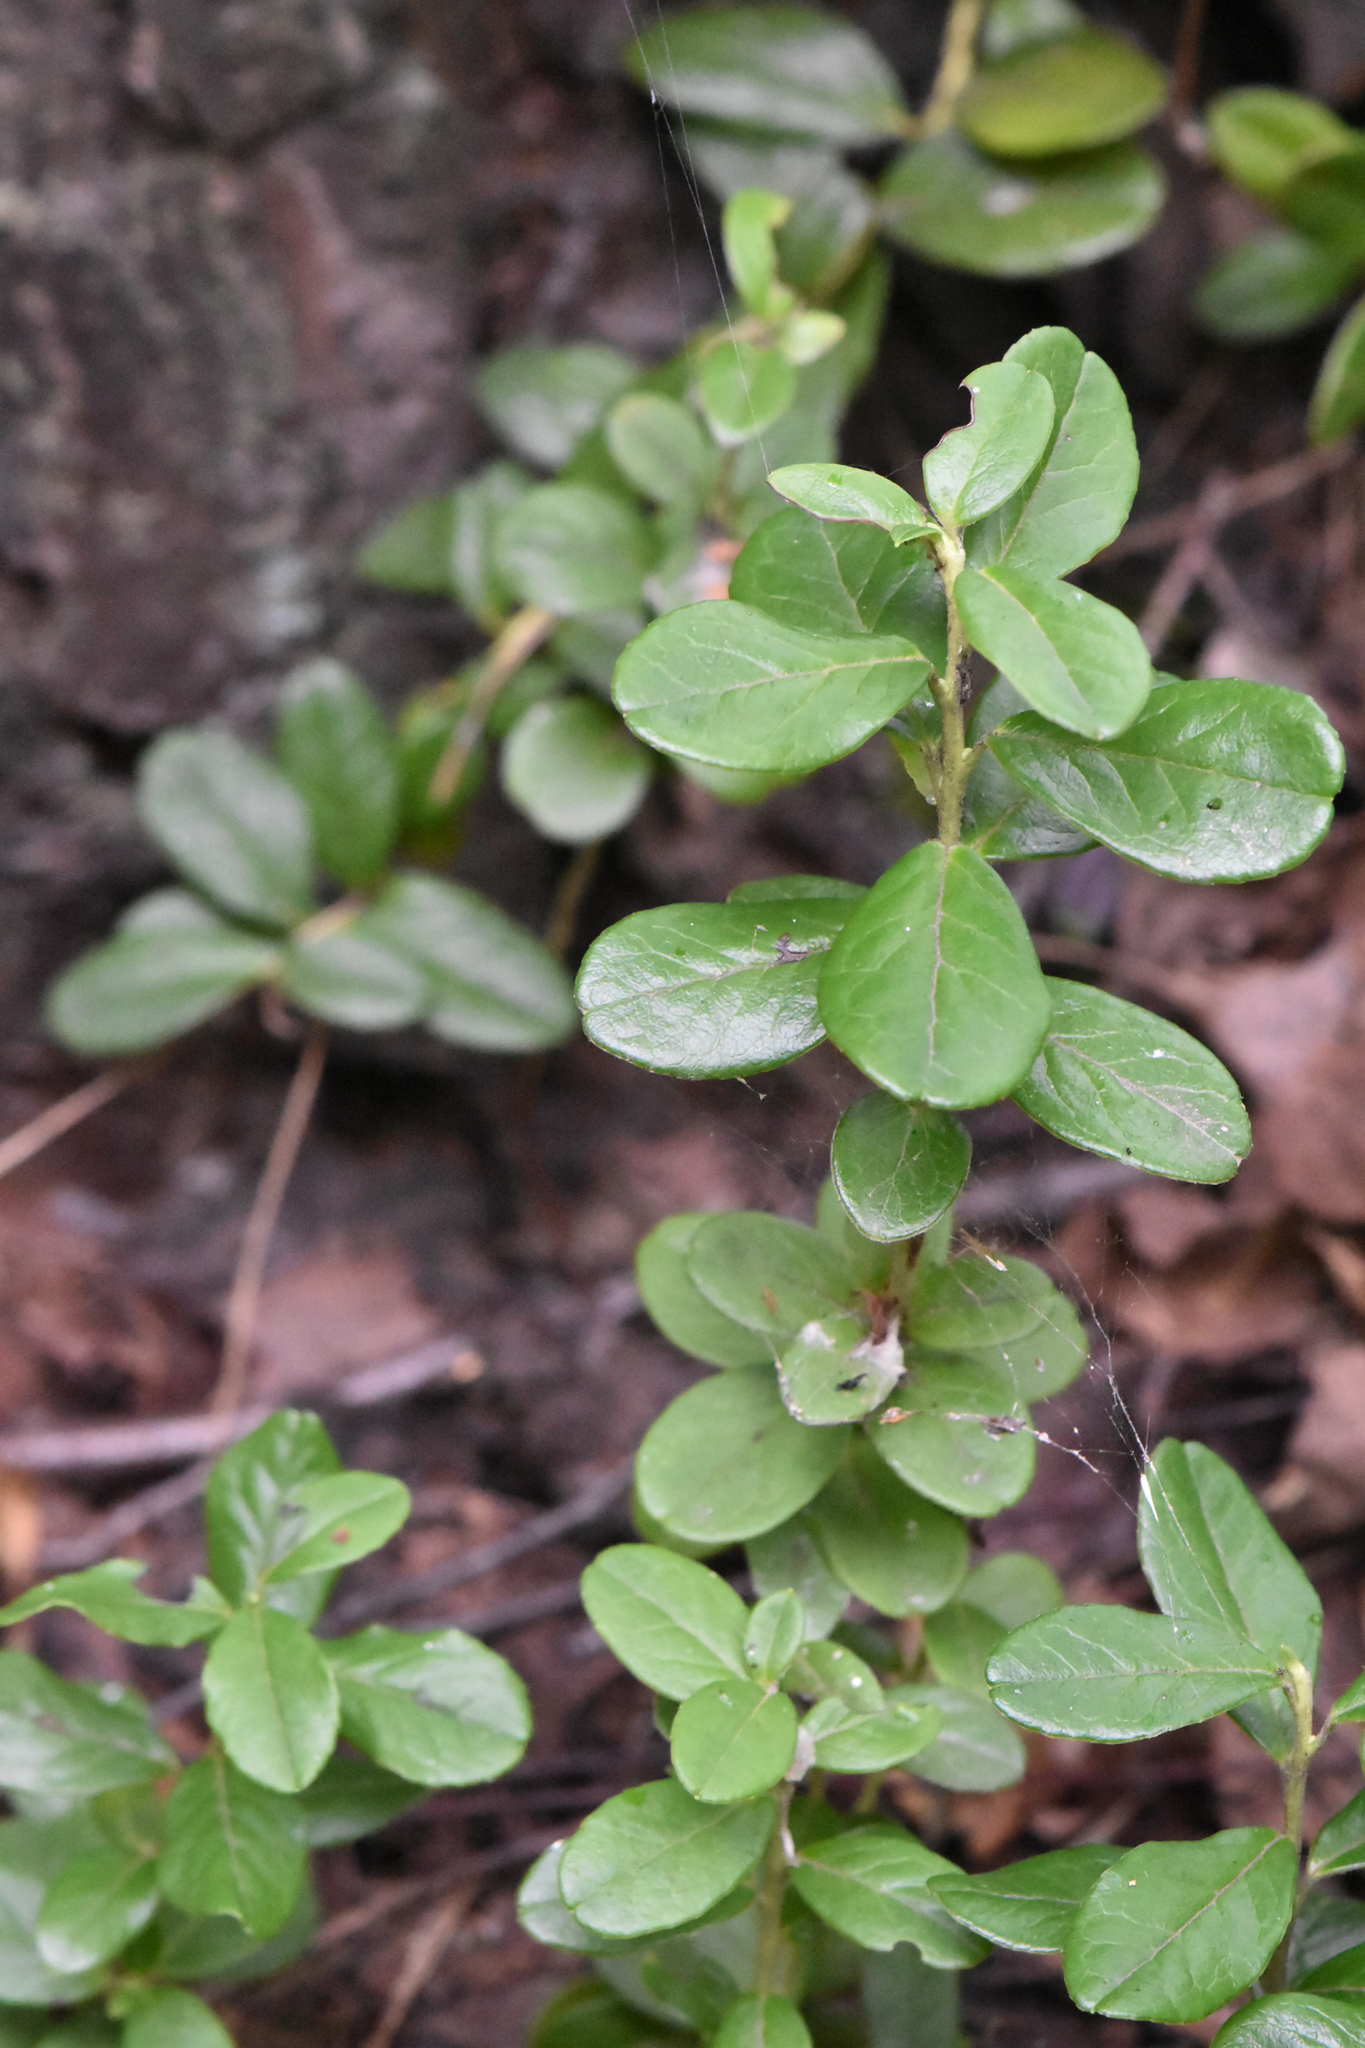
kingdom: Plantae
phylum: Tracheophyta
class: Magnoliopsida
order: Ericales
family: Ericaceae
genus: Vaccinium
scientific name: Vaccinium vitis-idaea
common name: Cowberry
